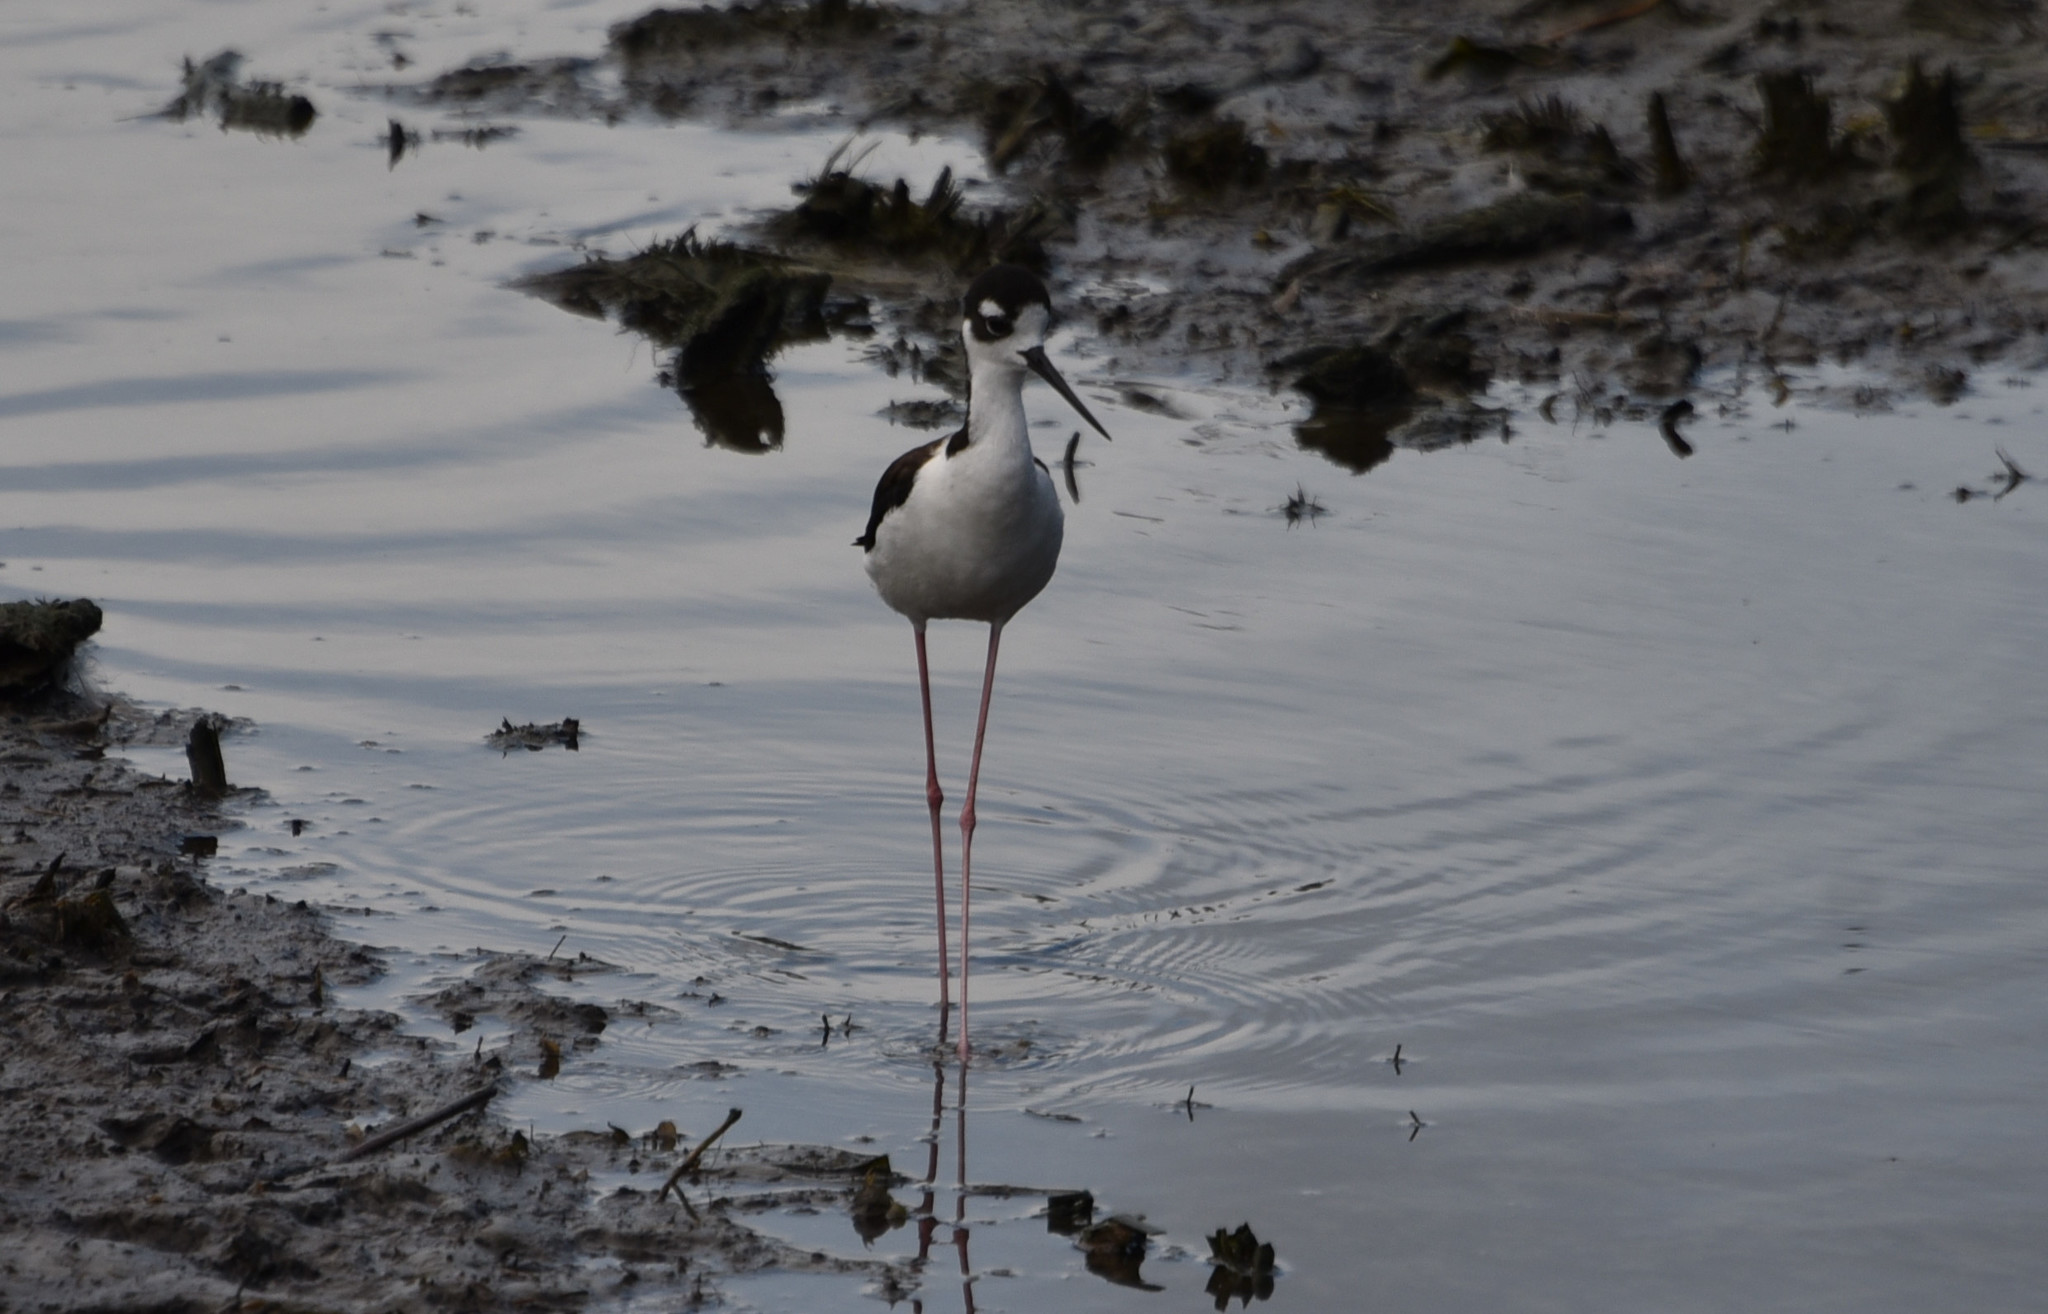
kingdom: Animalia
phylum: Chordata
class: Aves
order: Charadriiformes
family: Recurvirostridae
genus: Himantopus
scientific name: Himantopus mexicanus
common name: Black-necked stilt
